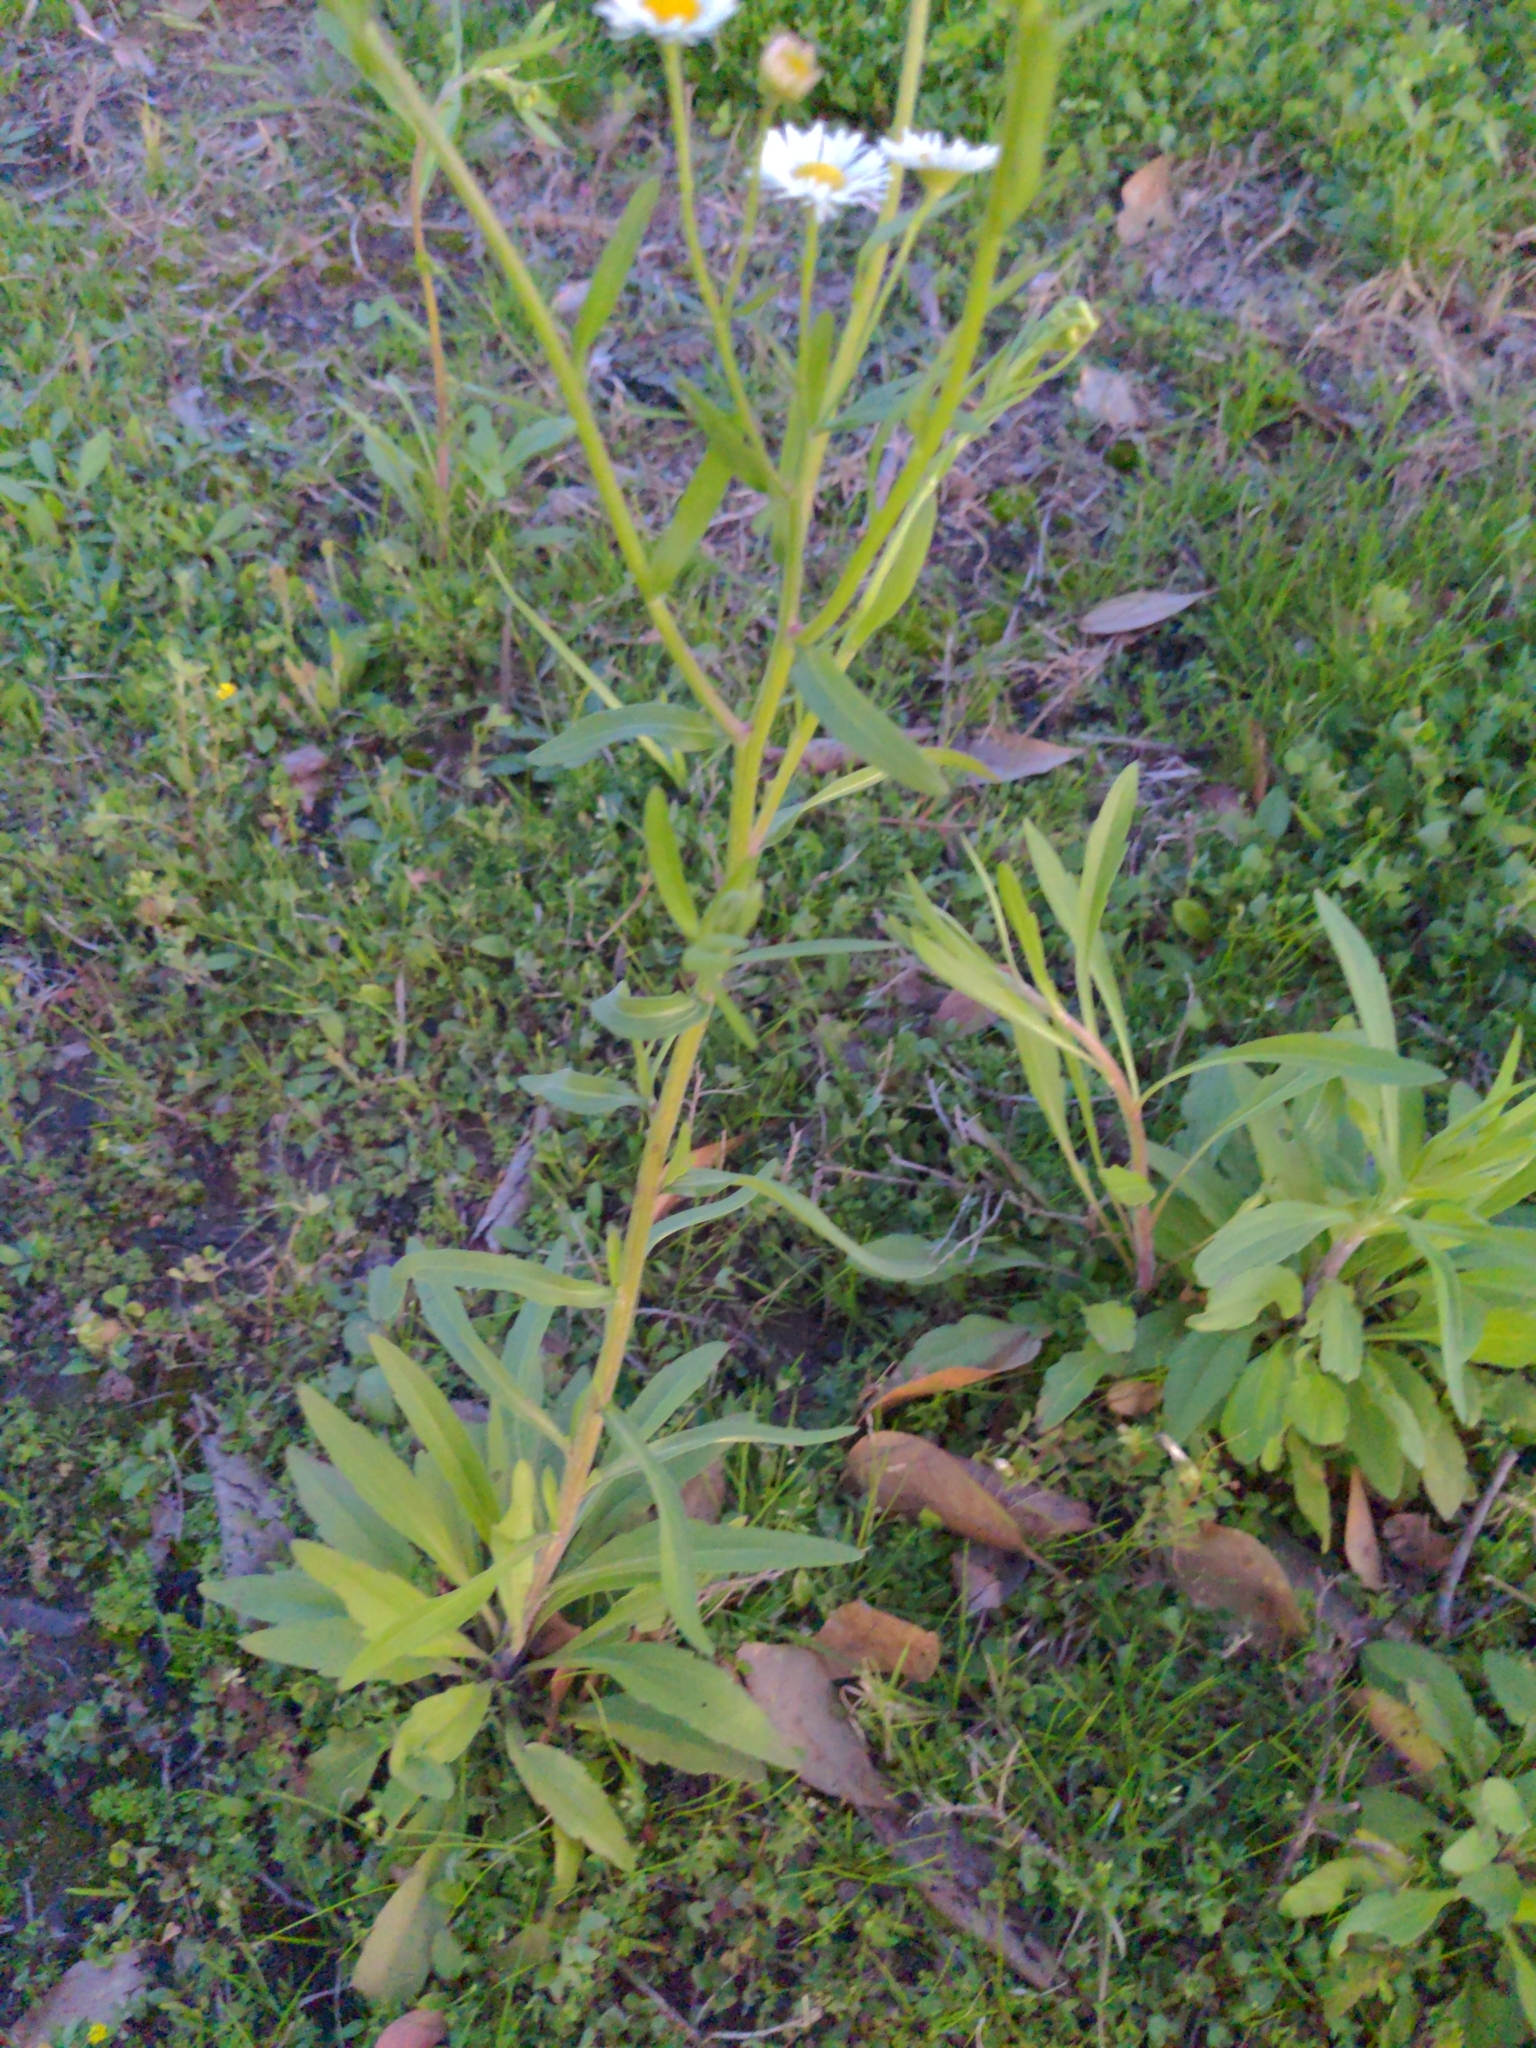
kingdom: Plantae
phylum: Tracheophyta
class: Magnoliopsida
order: Asterales
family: Asteraceae
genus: Erigeron
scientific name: Erigeron strigosus
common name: Common eastern fleabane
